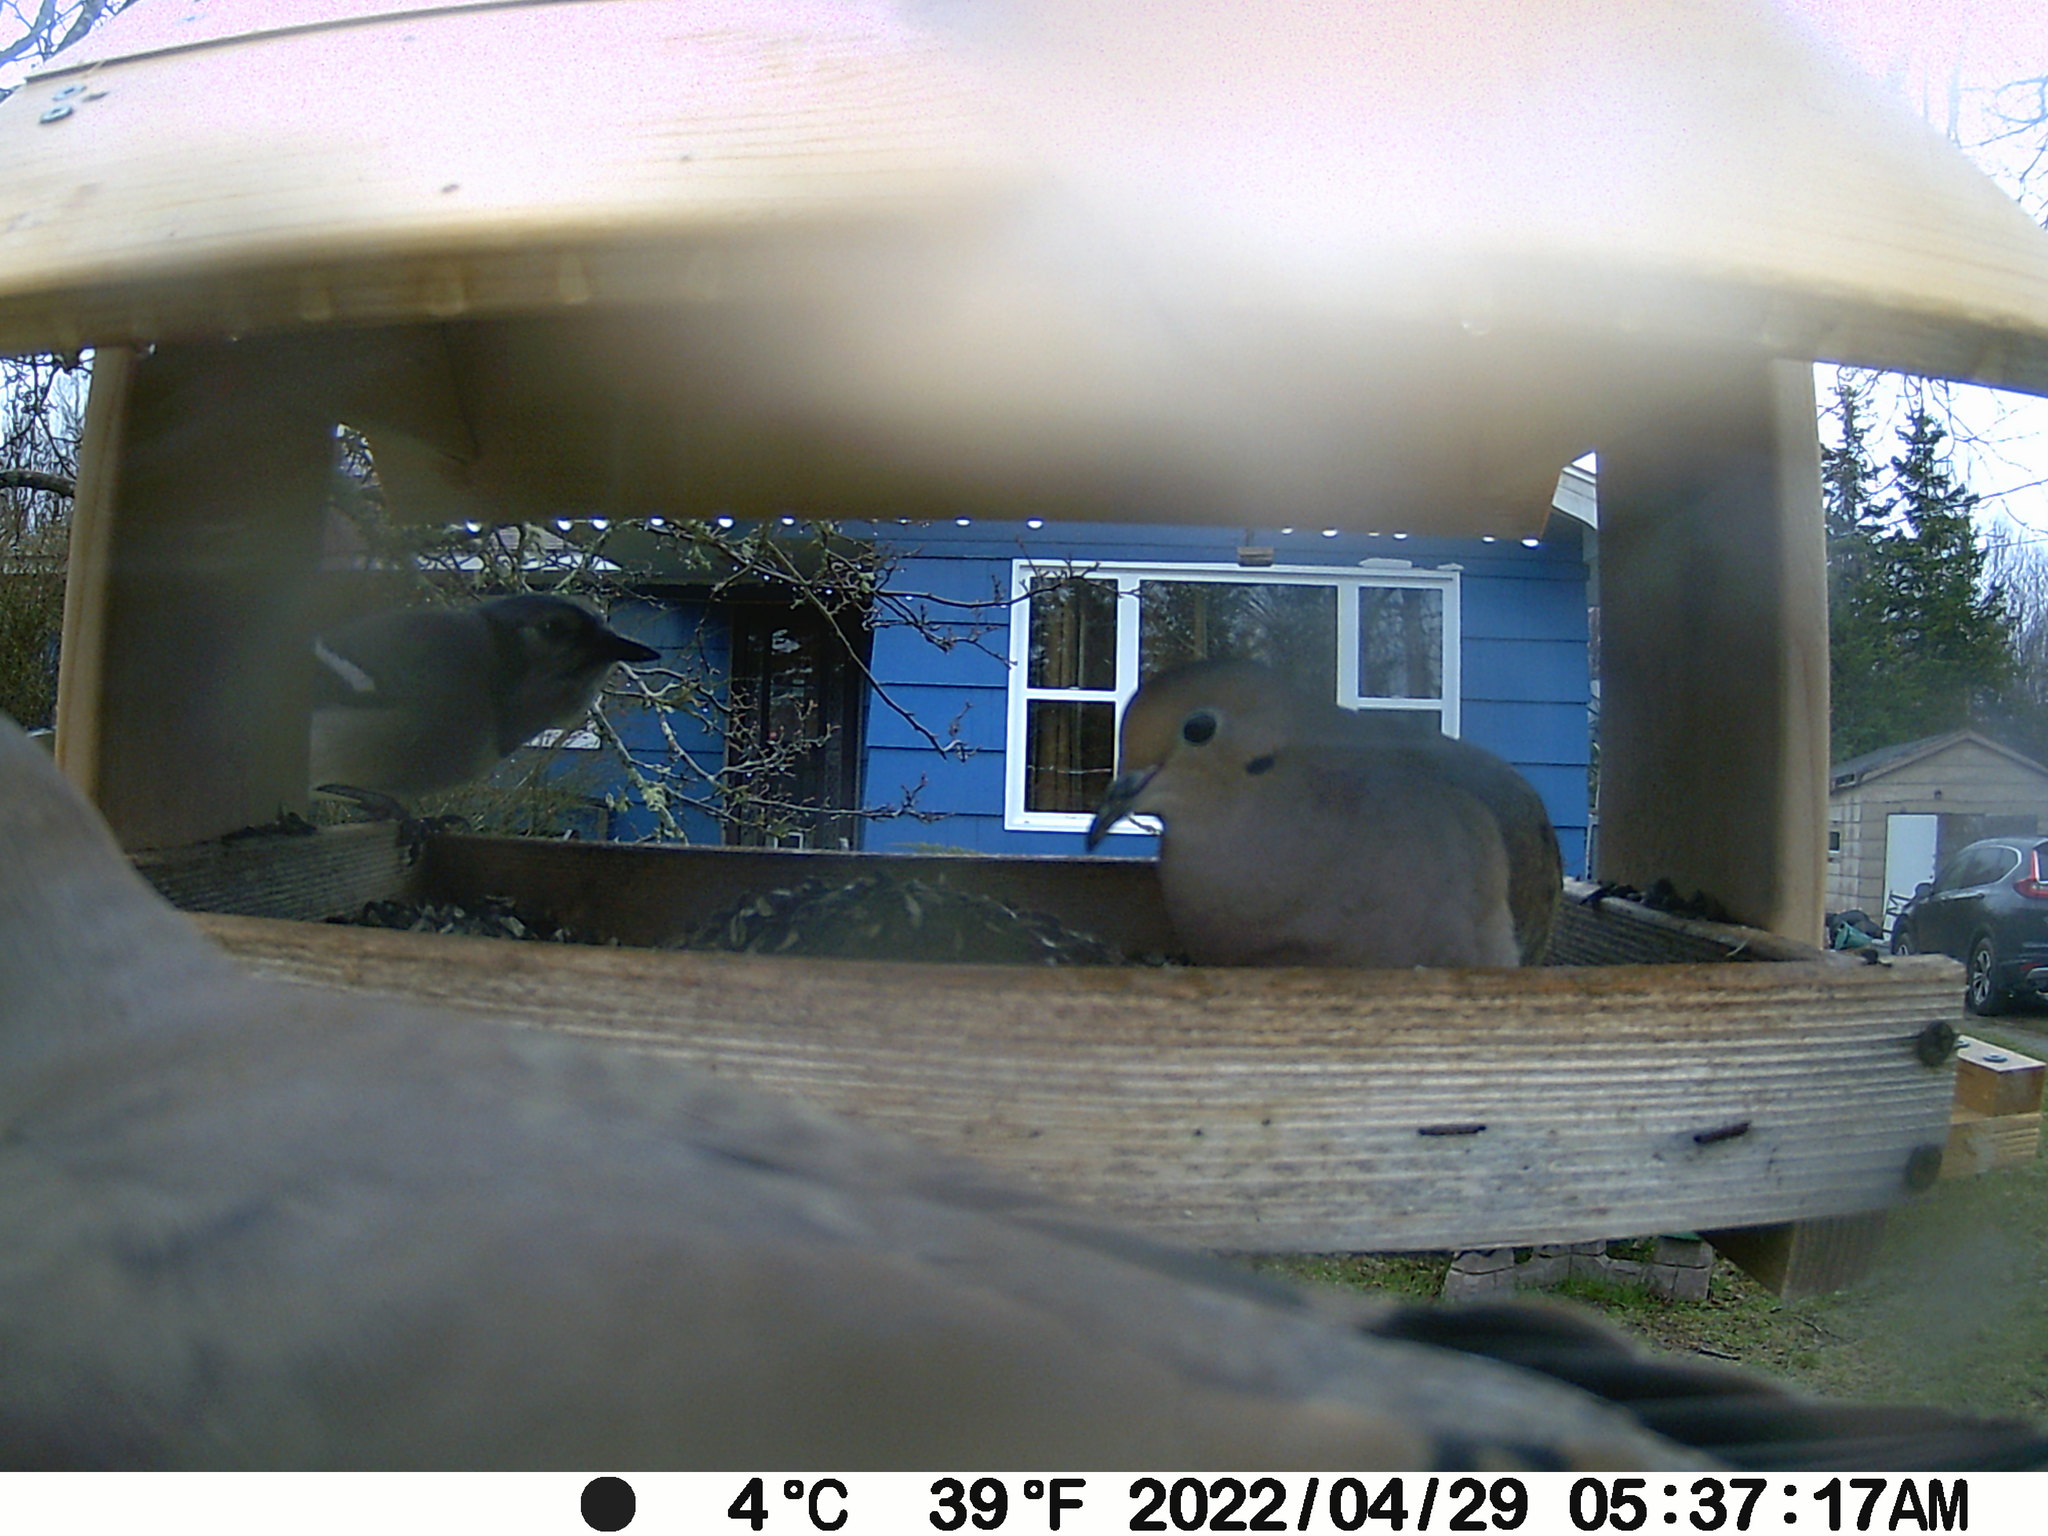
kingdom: Animalia
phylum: Chordata
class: Aves
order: Passeriformes
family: Corvidae
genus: Cyanocitta
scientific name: Cyanocitta cristata
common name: Blue jay
